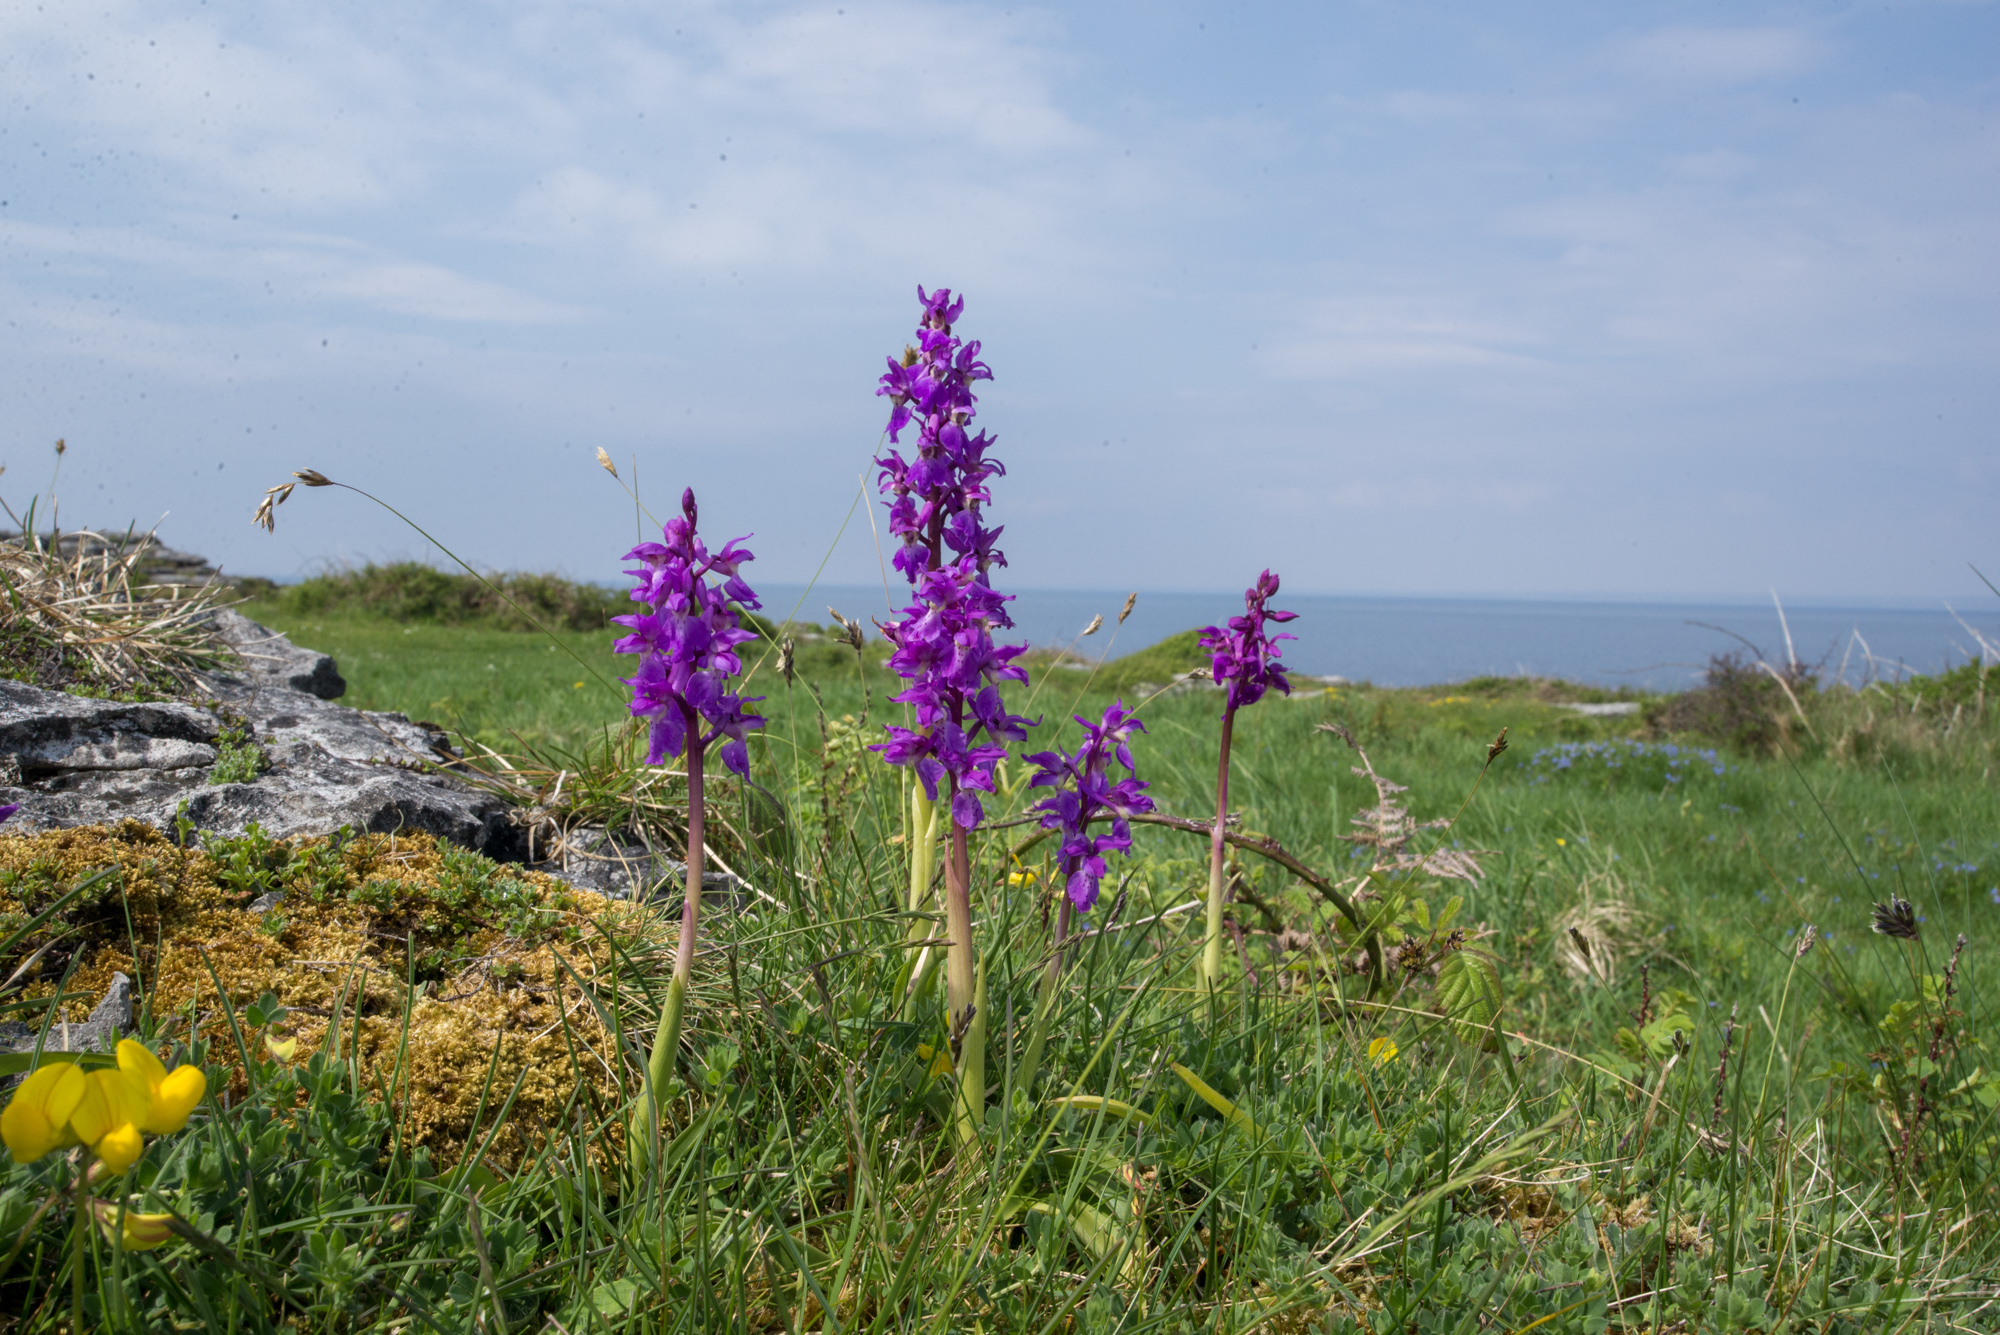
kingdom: Plantae
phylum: Tracheophyta
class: Liliopsida
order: Asparagales
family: Orchidaceae
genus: Orchis
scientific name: Orchis mascula
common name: Early-purple orchid
